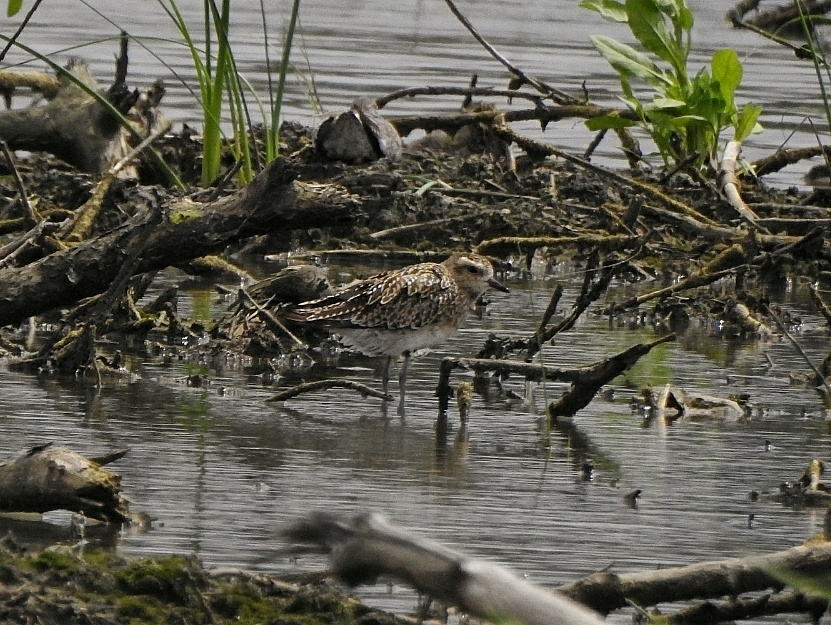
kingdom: Animalia
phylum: Chordata
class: Aves
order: Charadriiformes
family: Charadriidae
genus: Pluvialis
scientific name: Pluvialis fulva
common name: Pacific golden plover
